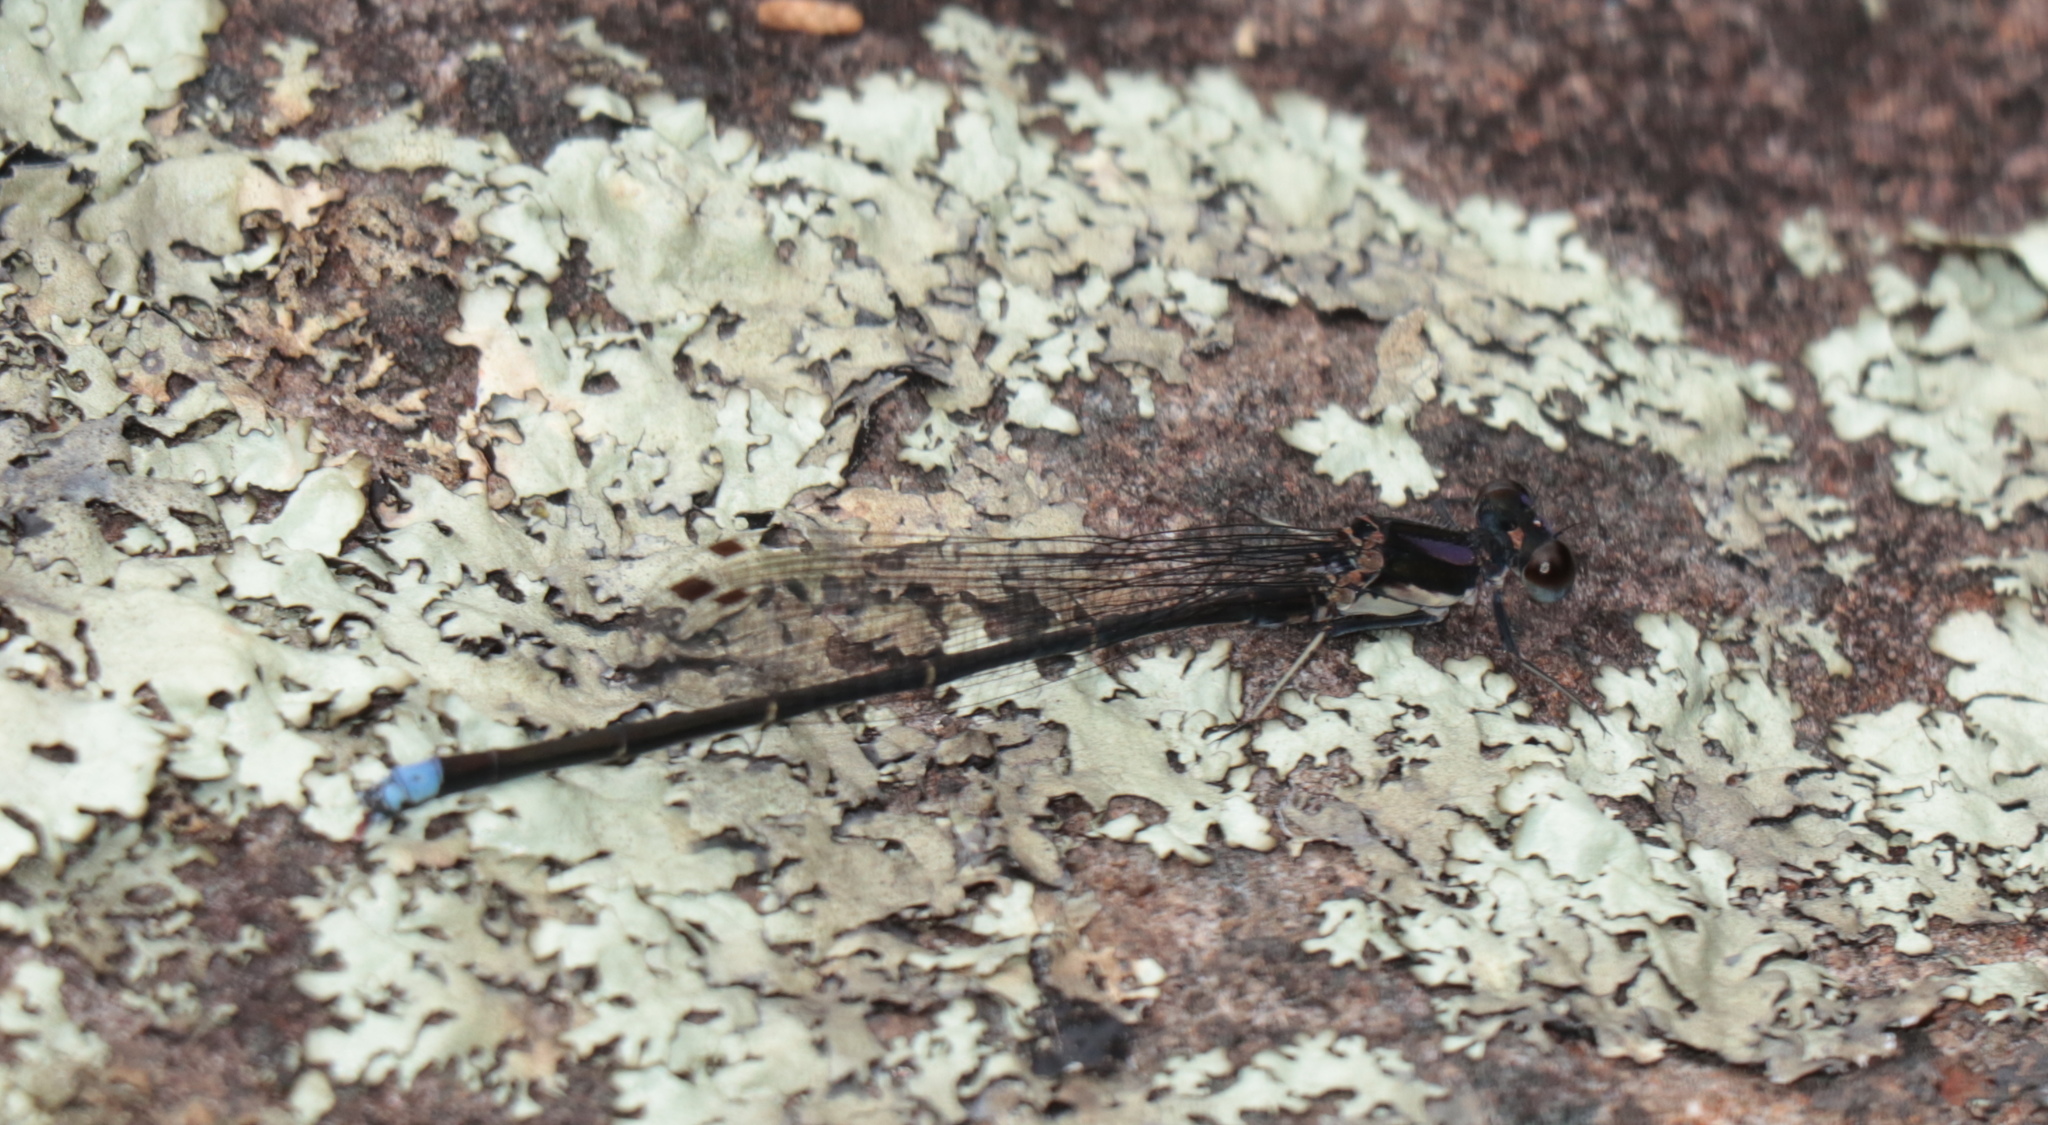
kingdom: Animalia
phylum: Arthropoda
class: Insecta
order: Odonata
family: Coenagrionidae
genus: Argia
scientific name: Argia tibialis
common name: Blue-tipped dancer
